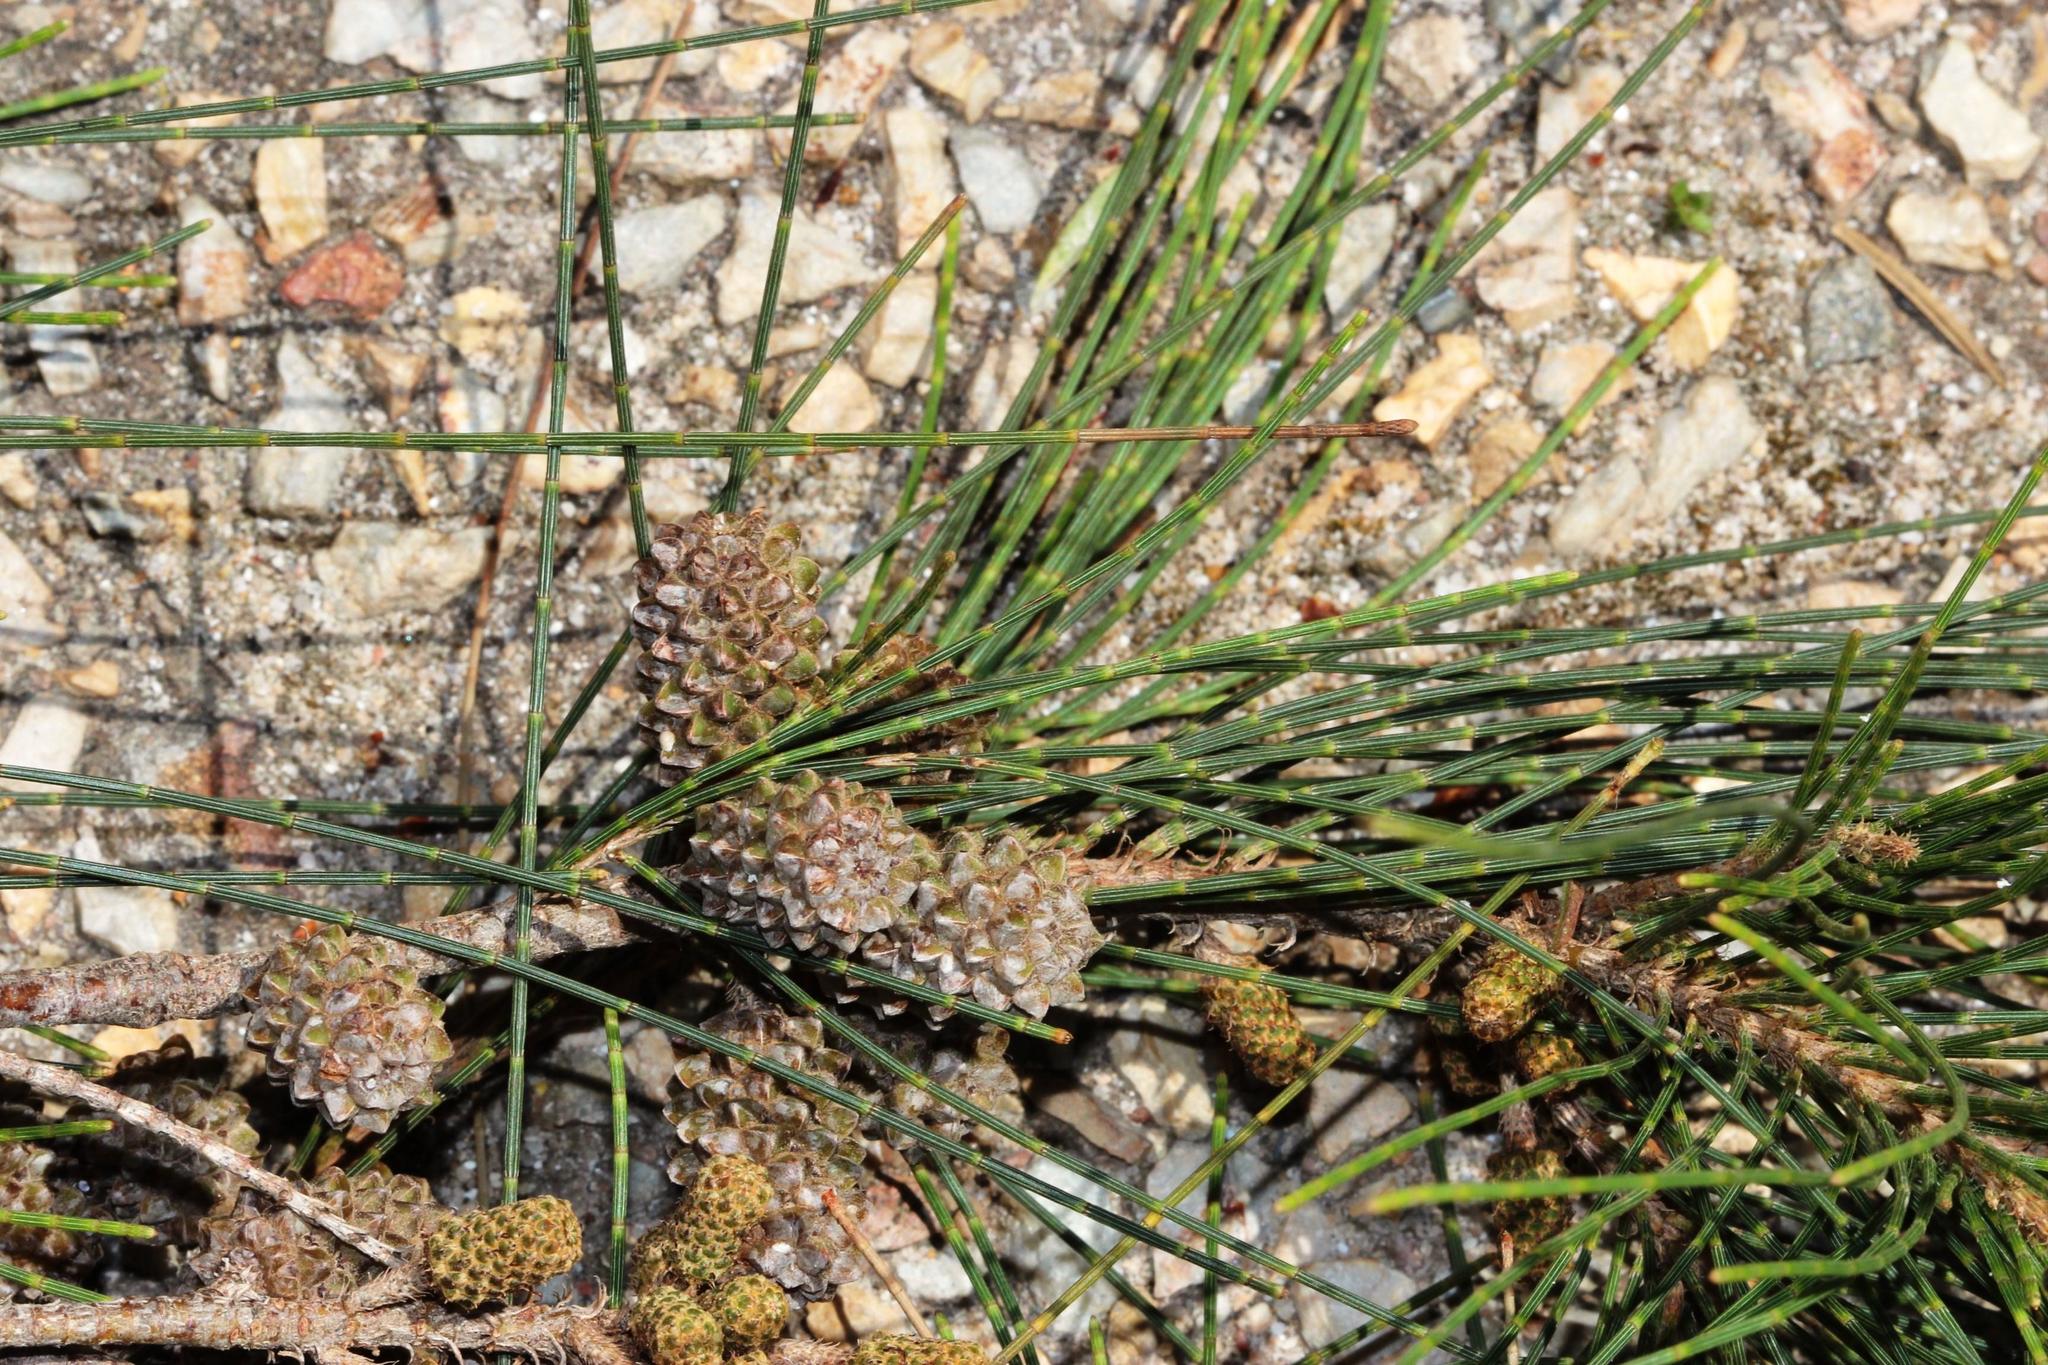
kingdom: Plantae
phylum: Tracheophyta
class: Magnoliopsida
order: Fagales
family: Casuarinaceae
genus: Casuarina
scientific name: Casuarina cunninghamiana
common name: River sheoak
